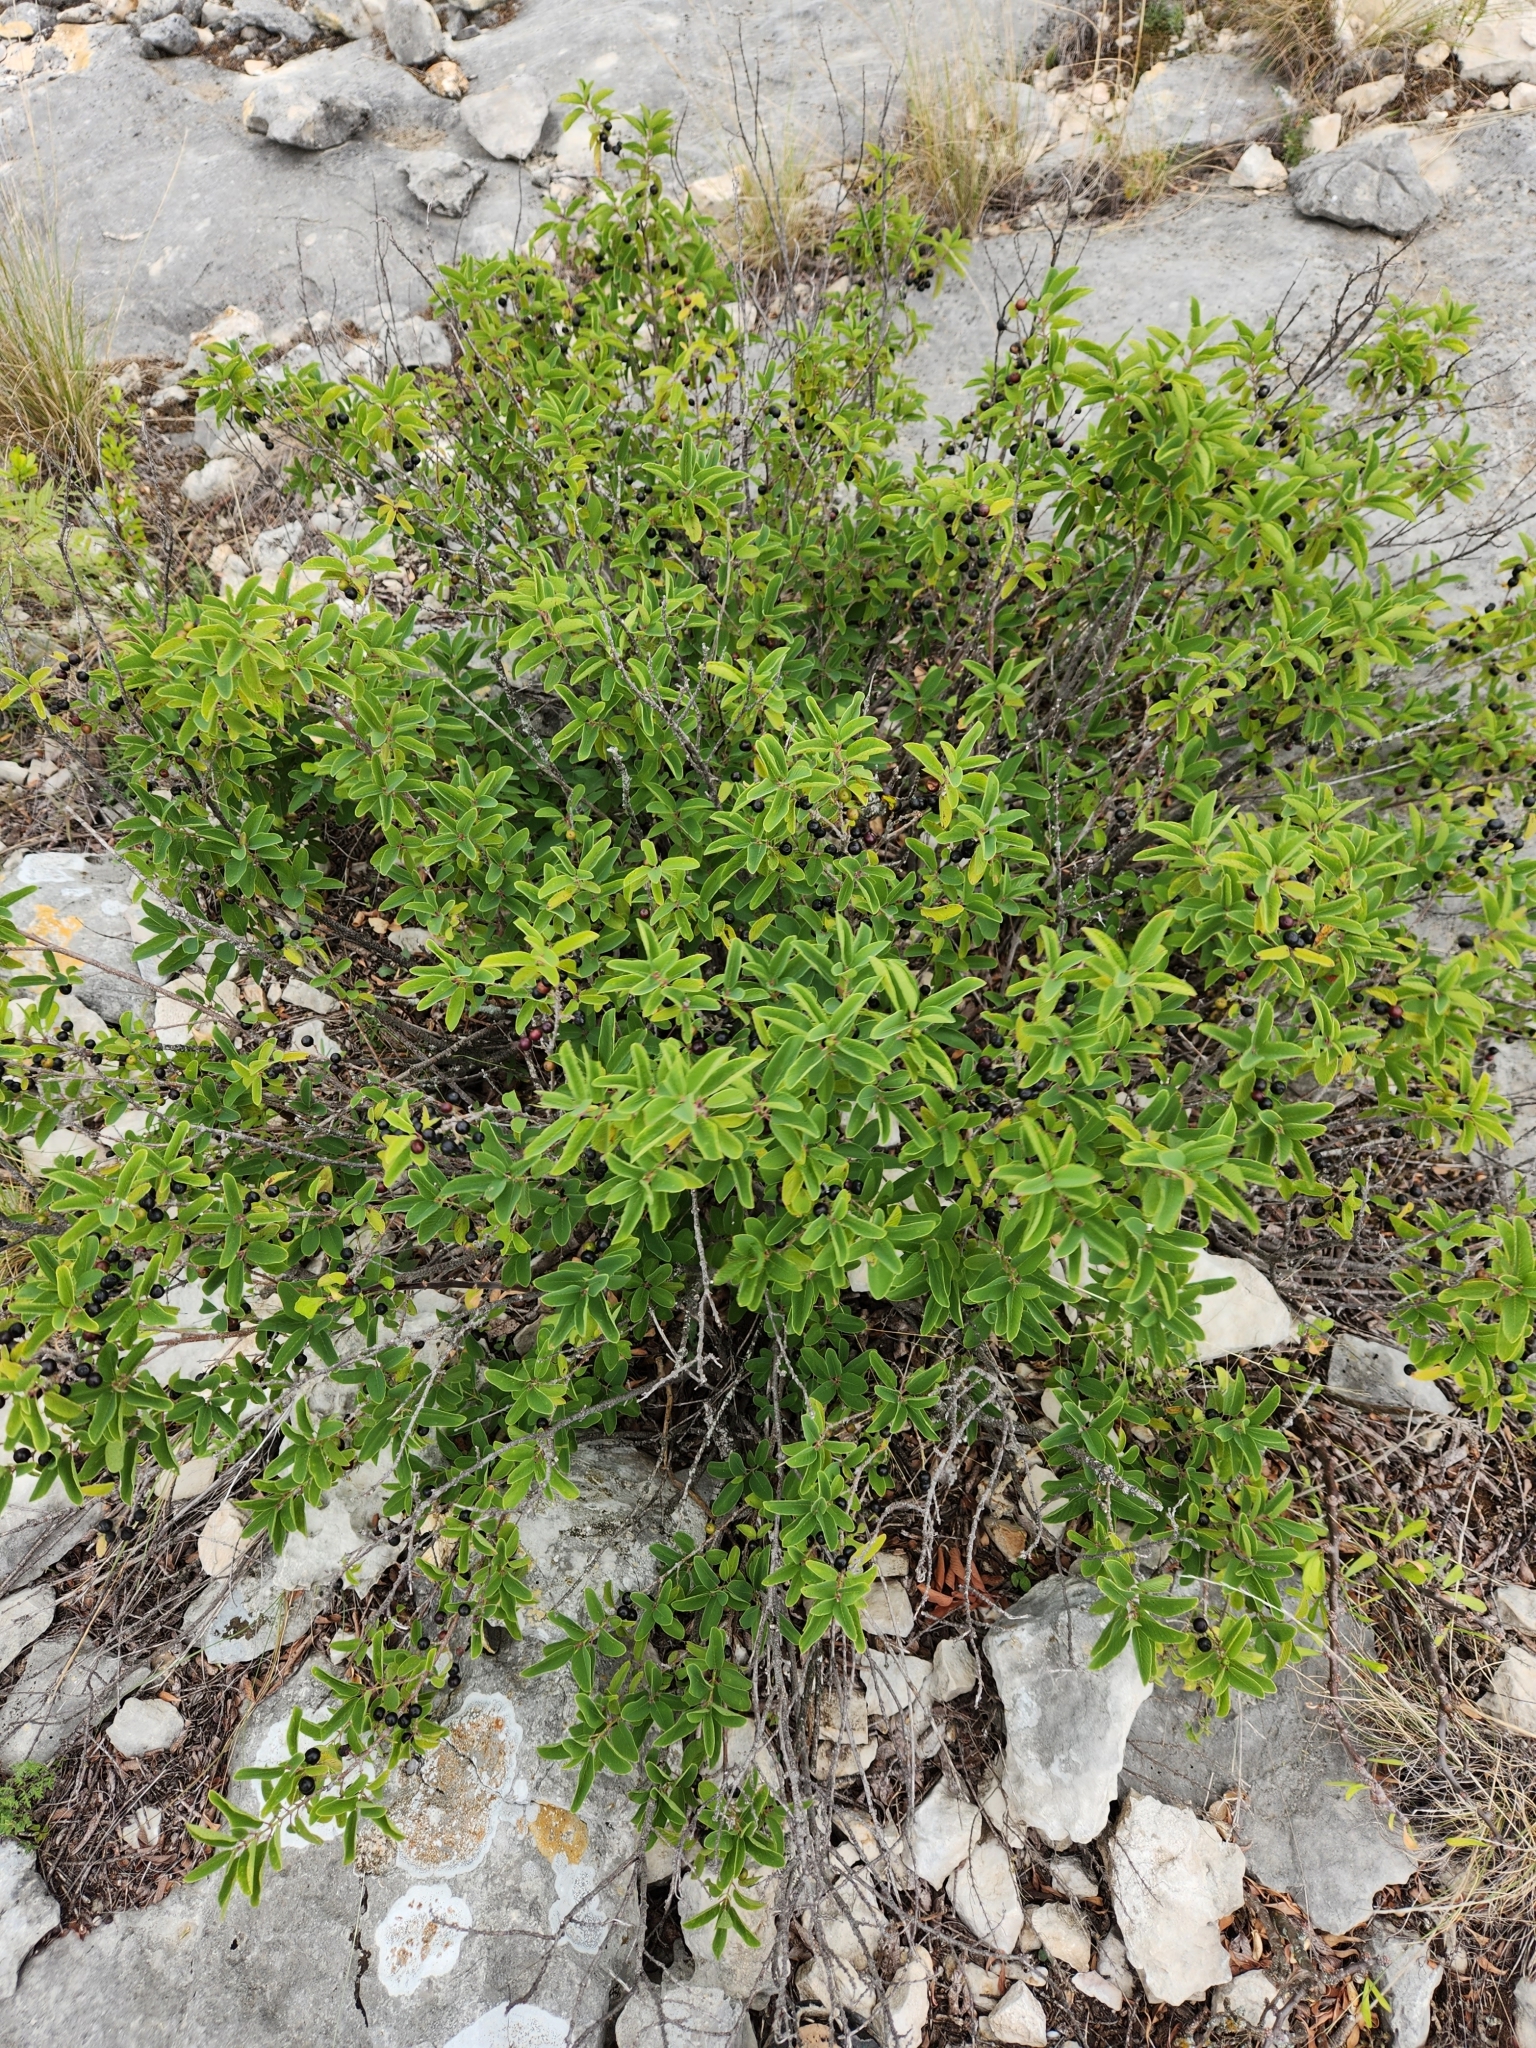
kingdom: Plantae
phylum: Tracheophyta
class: Magnoliopsida
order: Rosales
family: Rhamnaceae
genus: Karwinskia
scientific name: Karwinskia humboldtiana
